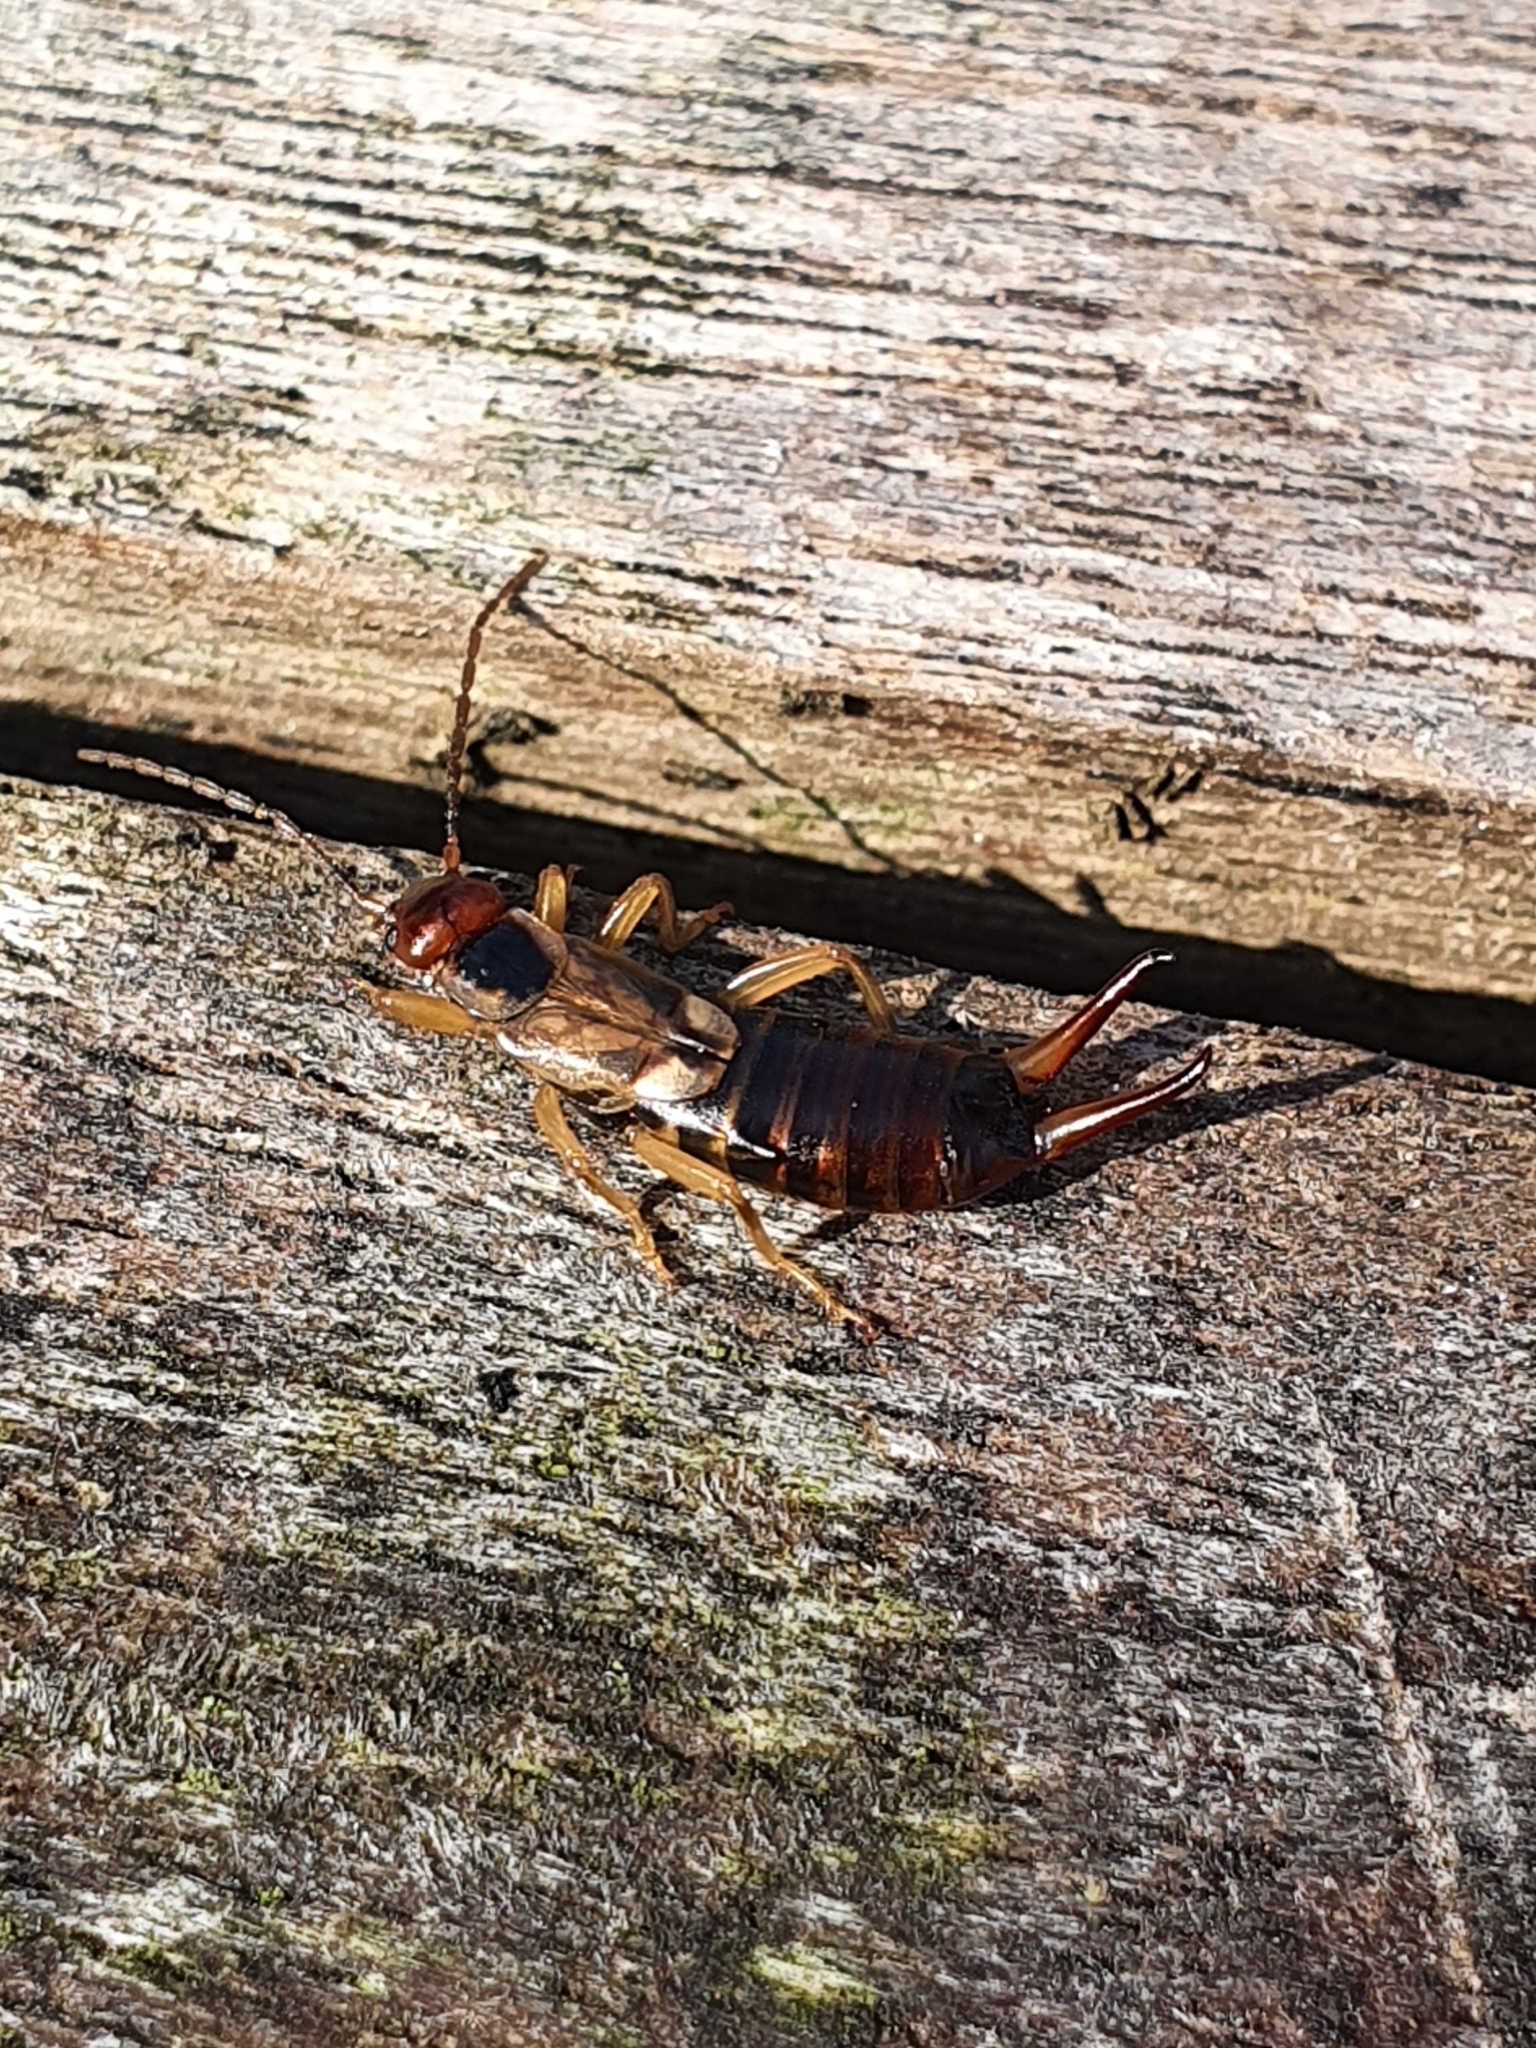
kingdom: Animalia
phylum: Arthropoda
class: Insecta
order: Dermaptera
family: Forficulidae
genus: Forficula
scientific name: Forficula
